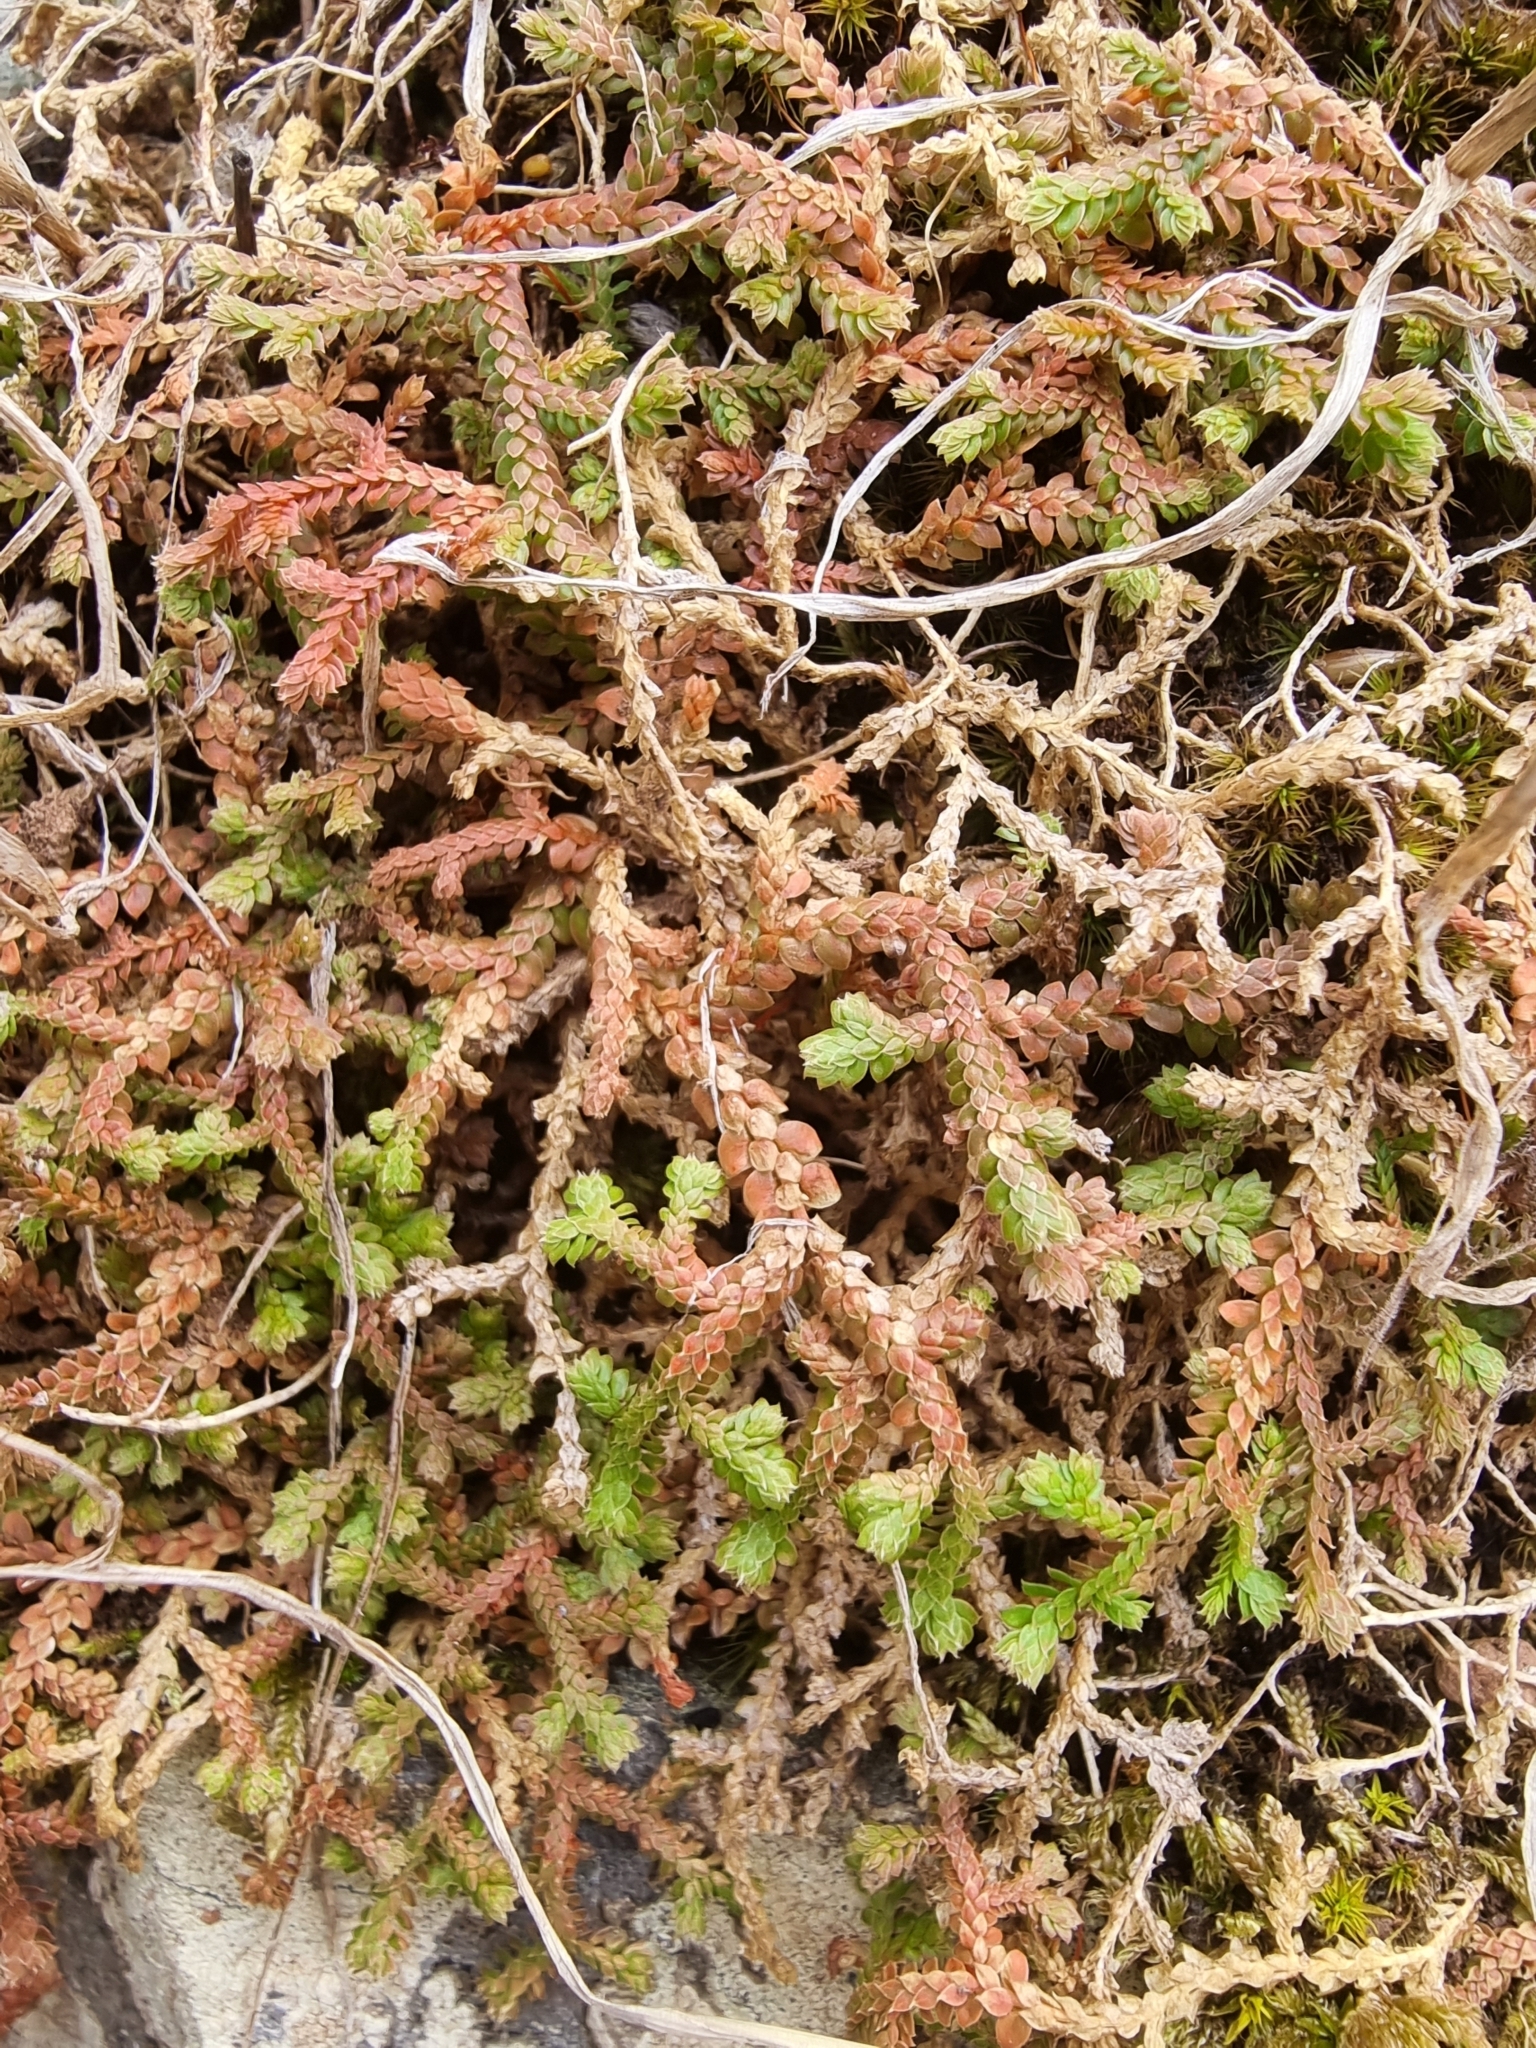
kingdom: Plantae
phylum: Tracheophyta
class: Lycopodiopsida
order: Selaginellales
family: Selaginellaceae
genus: Selaginella
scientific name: Selaginella denticulata
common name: Toothed-leaved clubmoss
